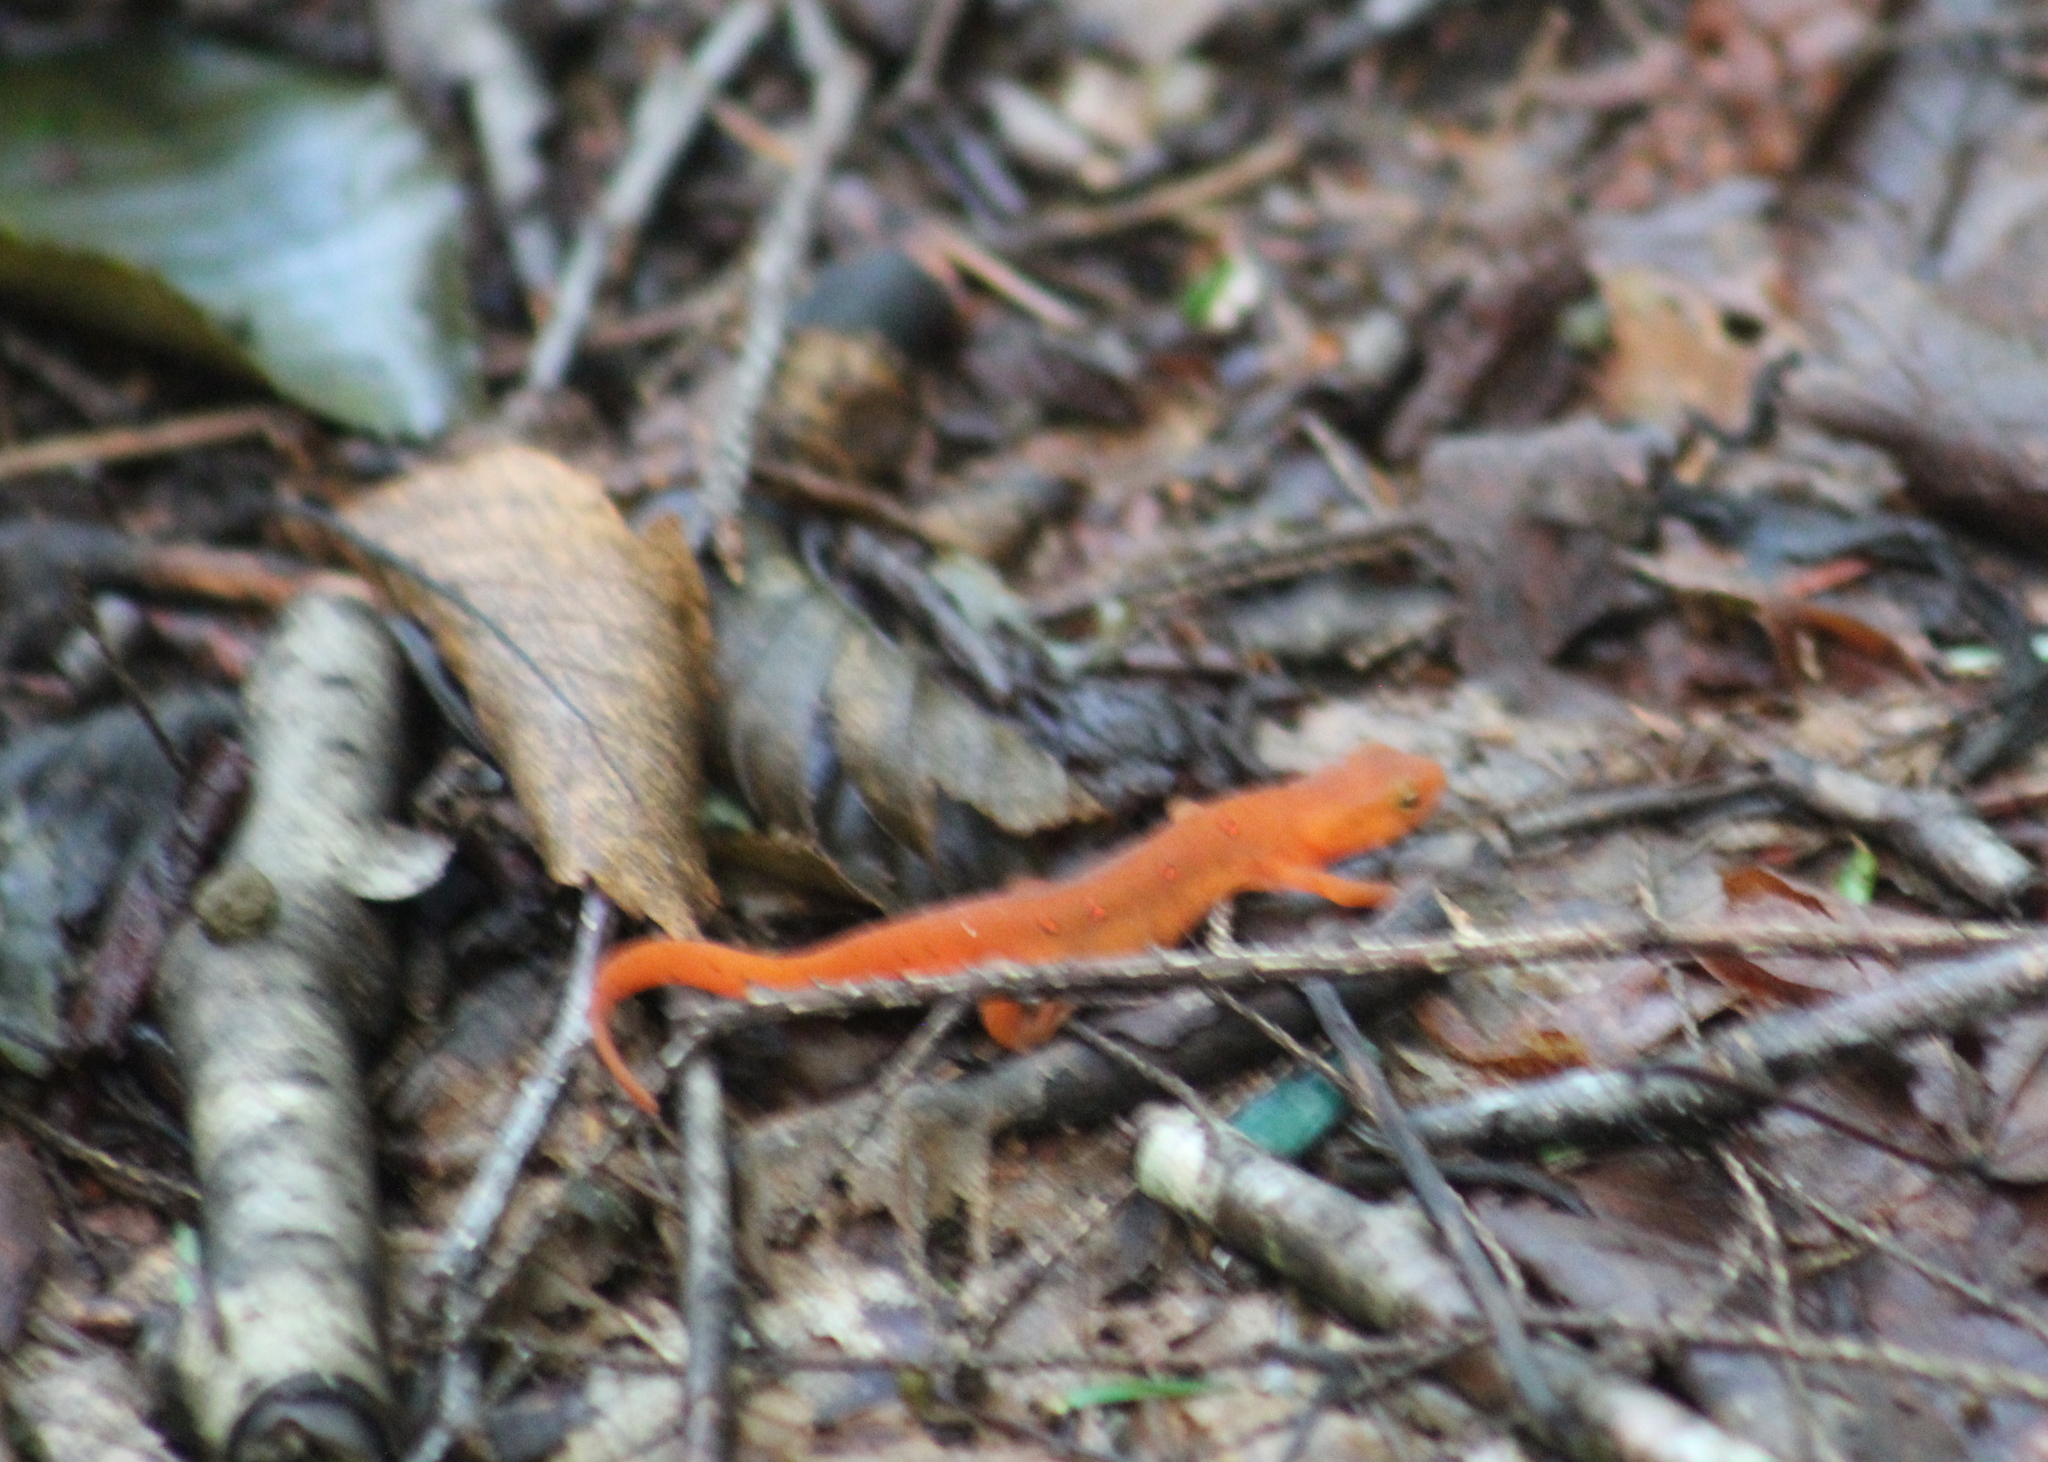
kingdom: Animalia
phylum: Chordata
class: Amphibia
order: Caudata
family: Salamandridae
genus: Notophthalmus
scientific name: Notophthalmus viridescens
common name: Eastern newt
